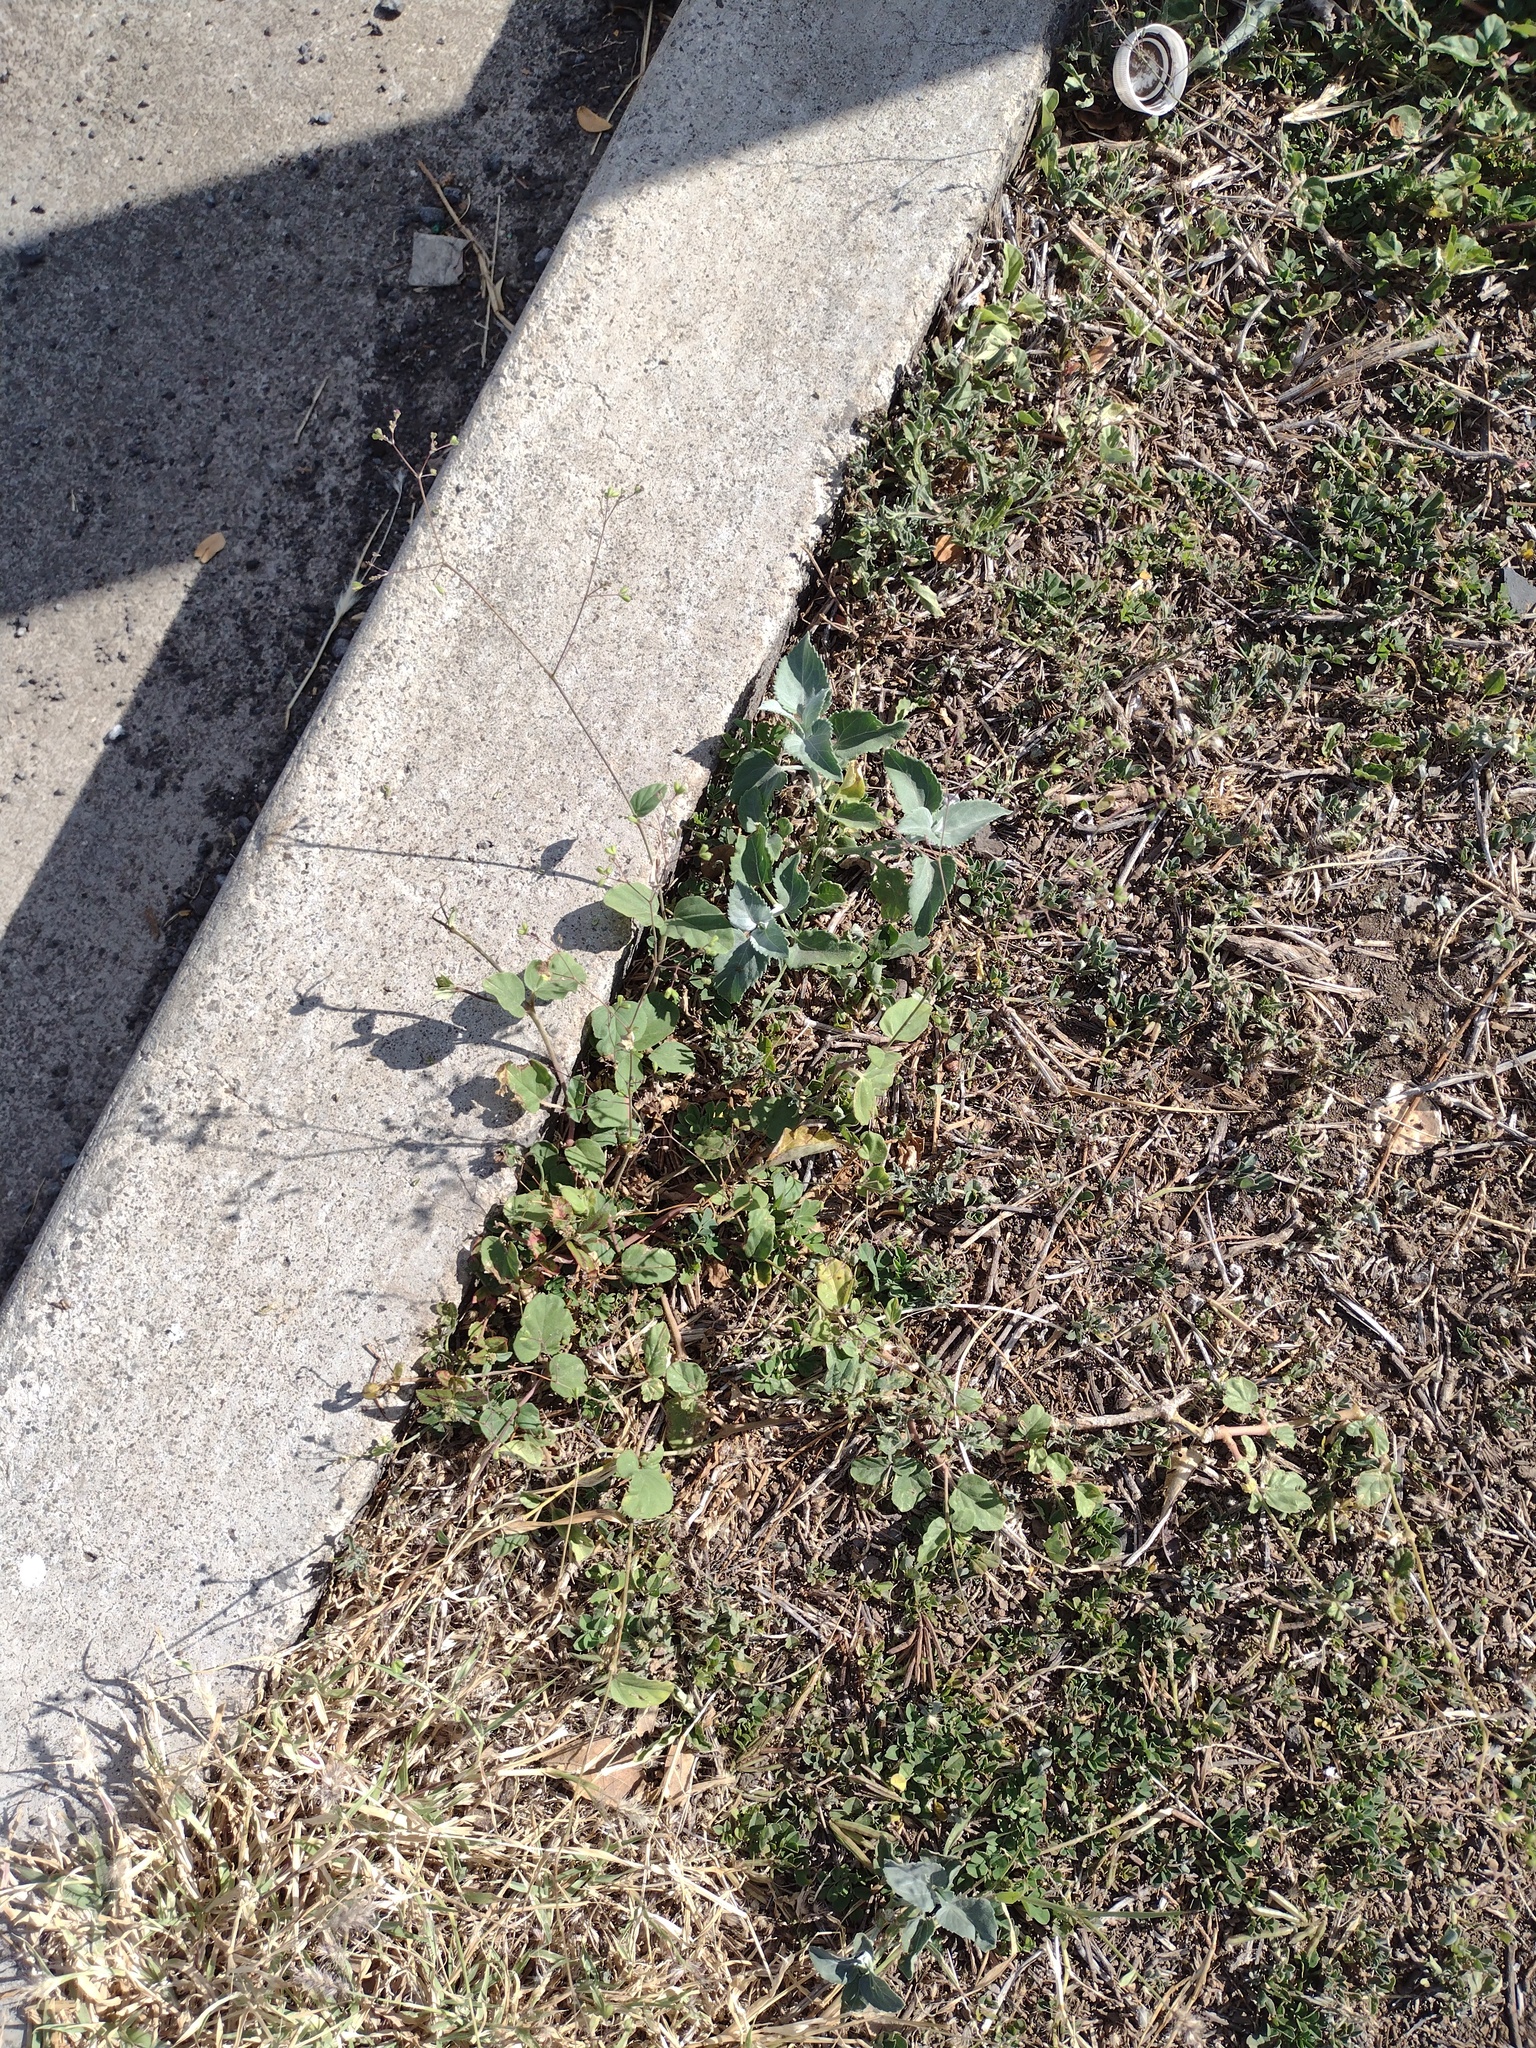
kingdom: Plantae
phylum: Tracheophyta
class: Magnoliopsida
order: Caryophyllales
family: Nyctaginaceae
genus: Boerhavia
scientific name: Boerhavia diffusa
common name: Red spiderling
